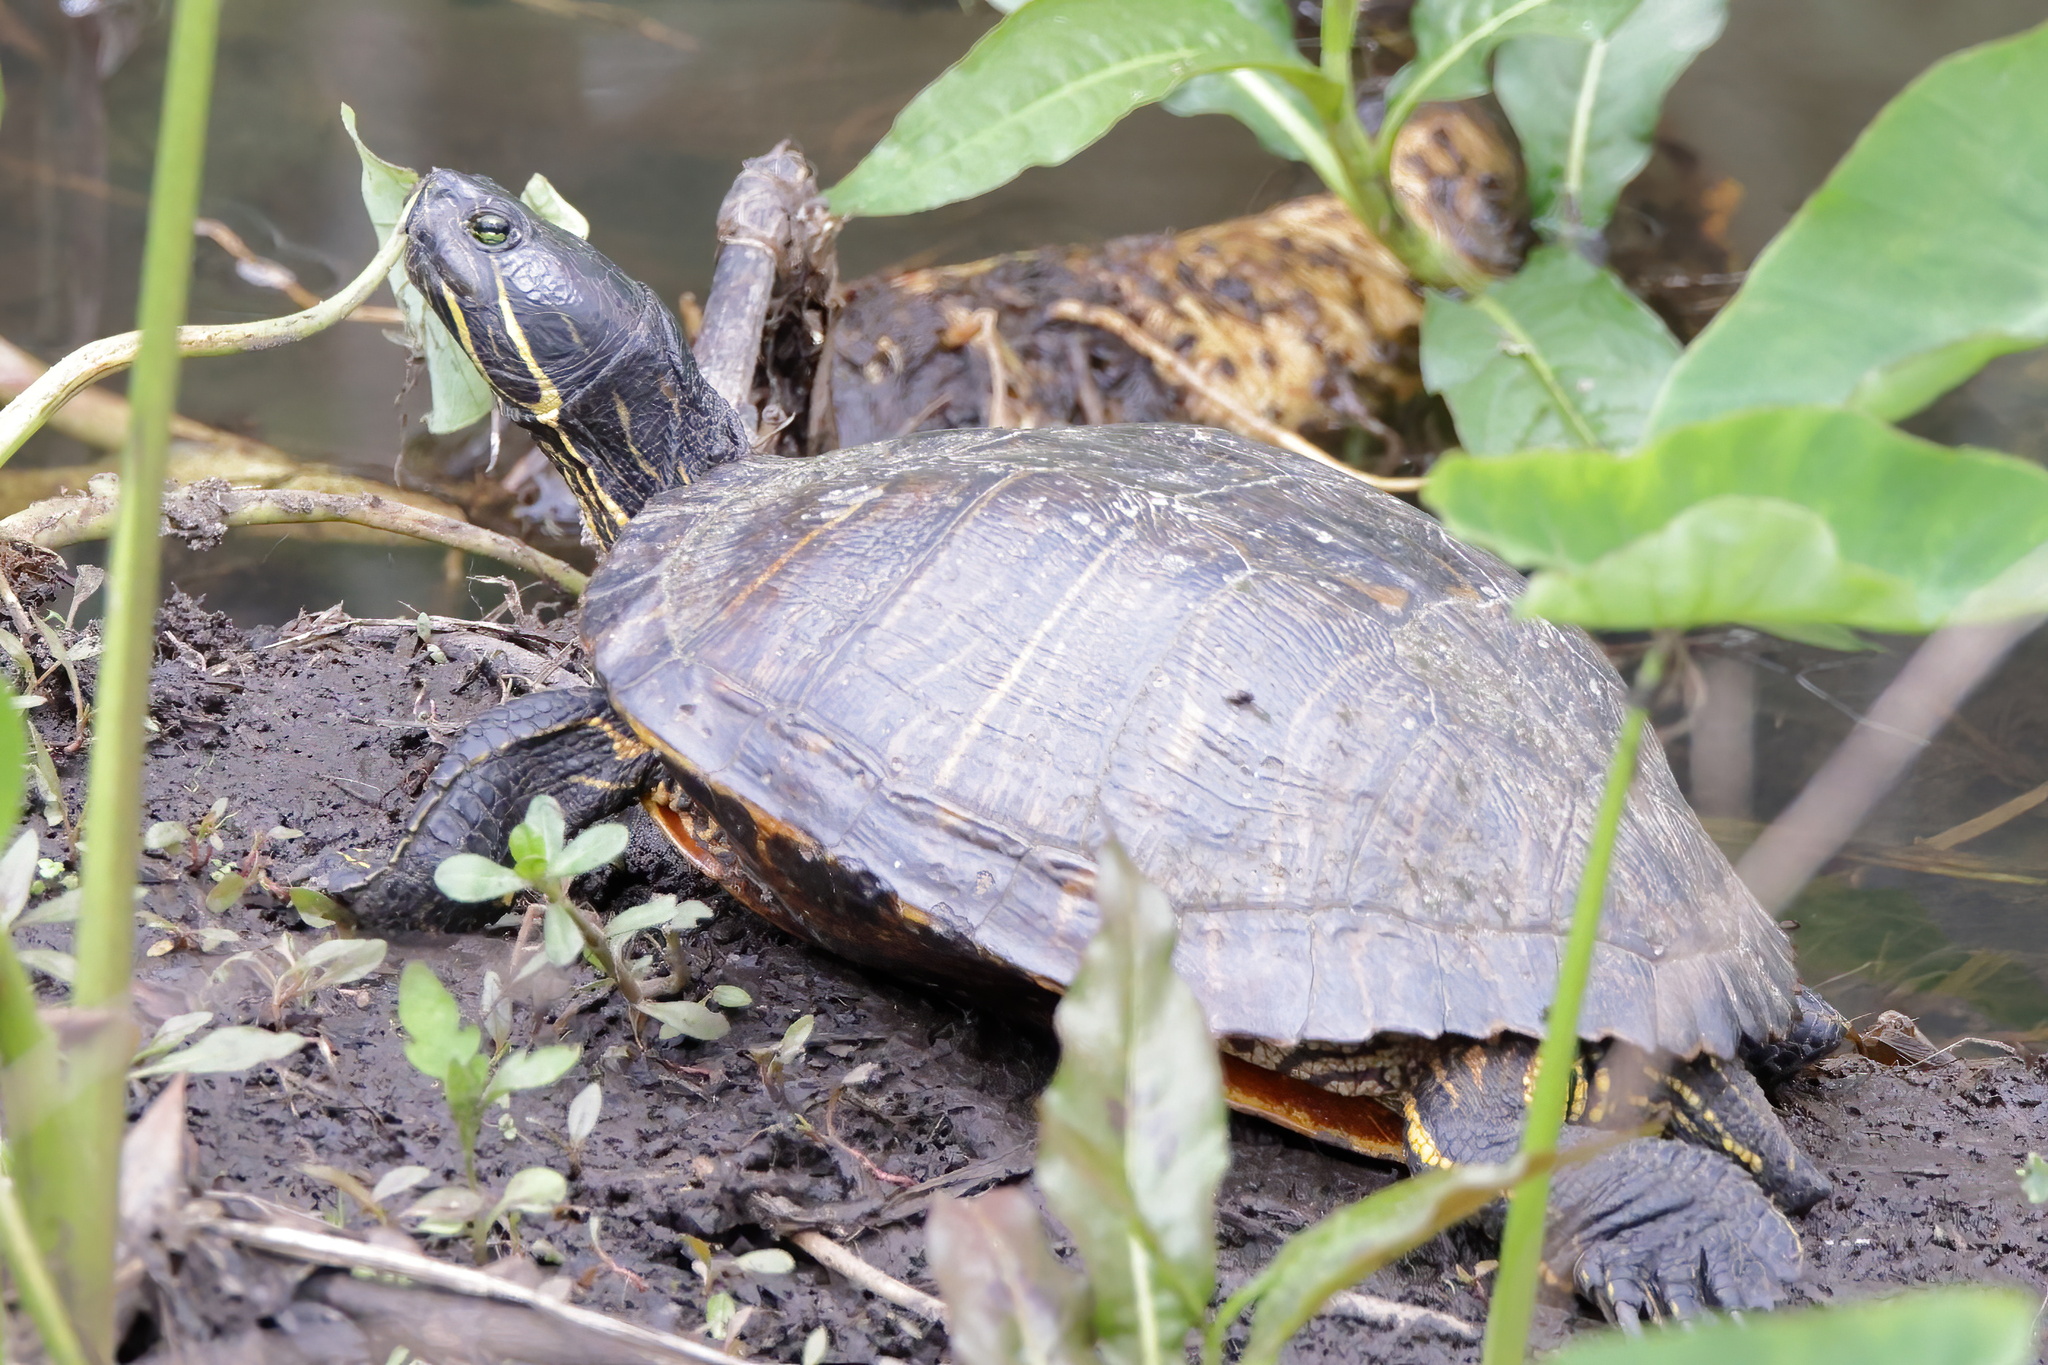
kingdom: Animalia
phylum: Chordata
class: Testudines
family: Emydidae
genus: Trachemys
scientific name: Trachemys scripta
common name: Slider
